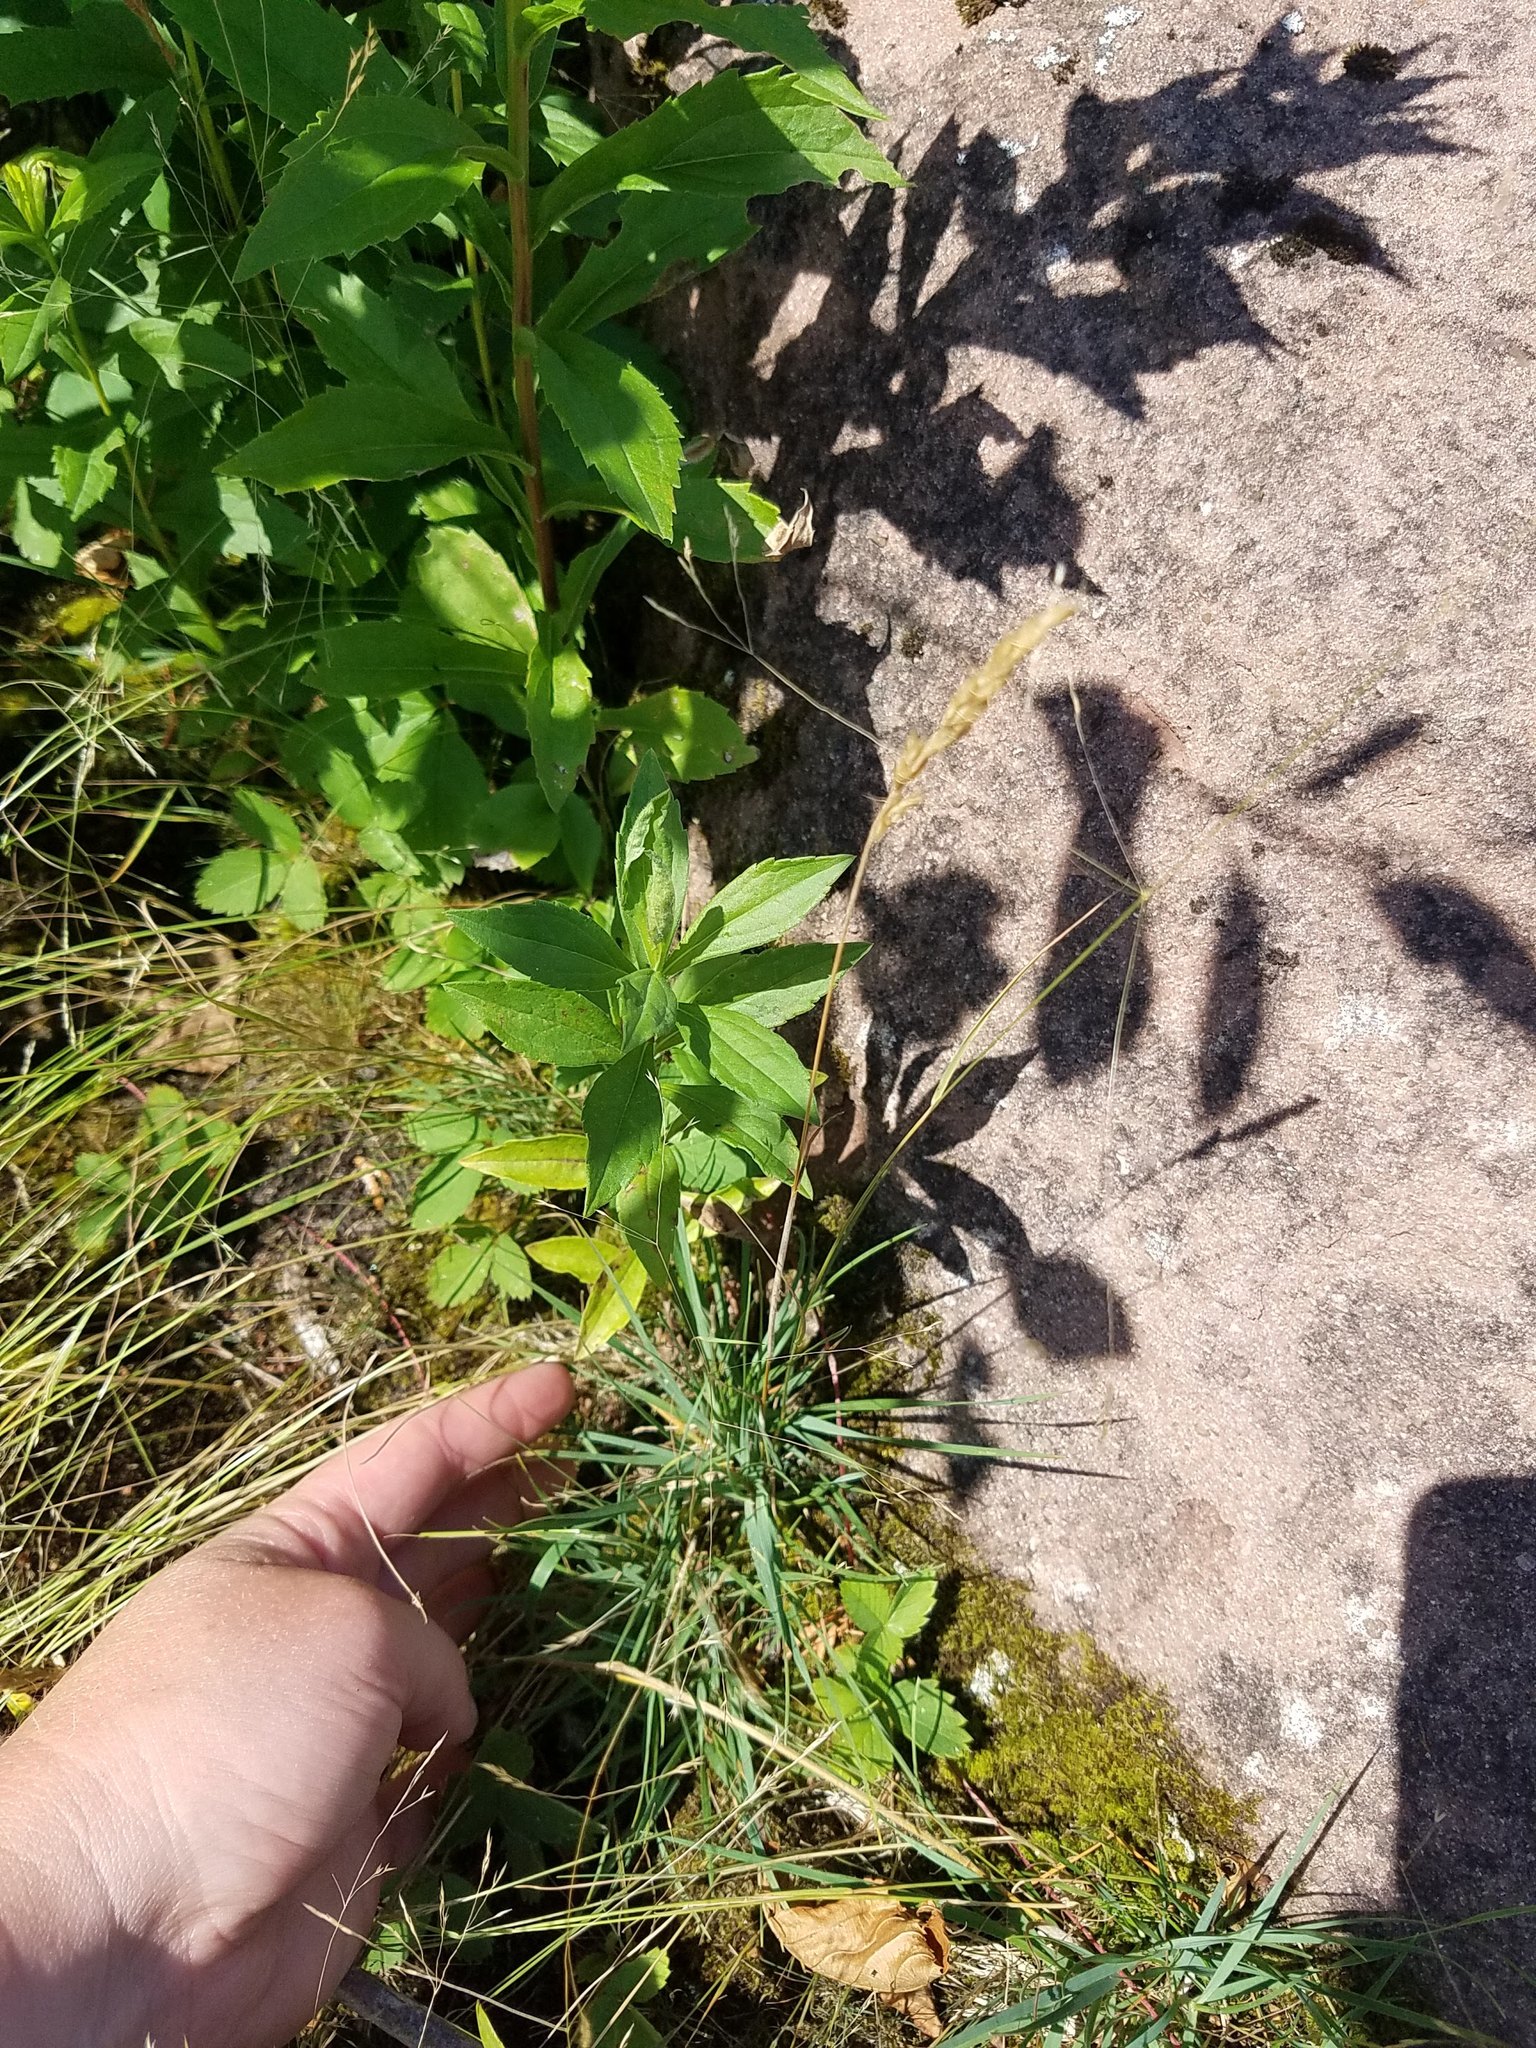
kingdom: Plantae
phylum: Tracheophyta
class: Liliopsida
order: Poales
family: Poaceae
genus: Koeleria
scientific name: Koeleria spicata
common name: Mountain trisetum
